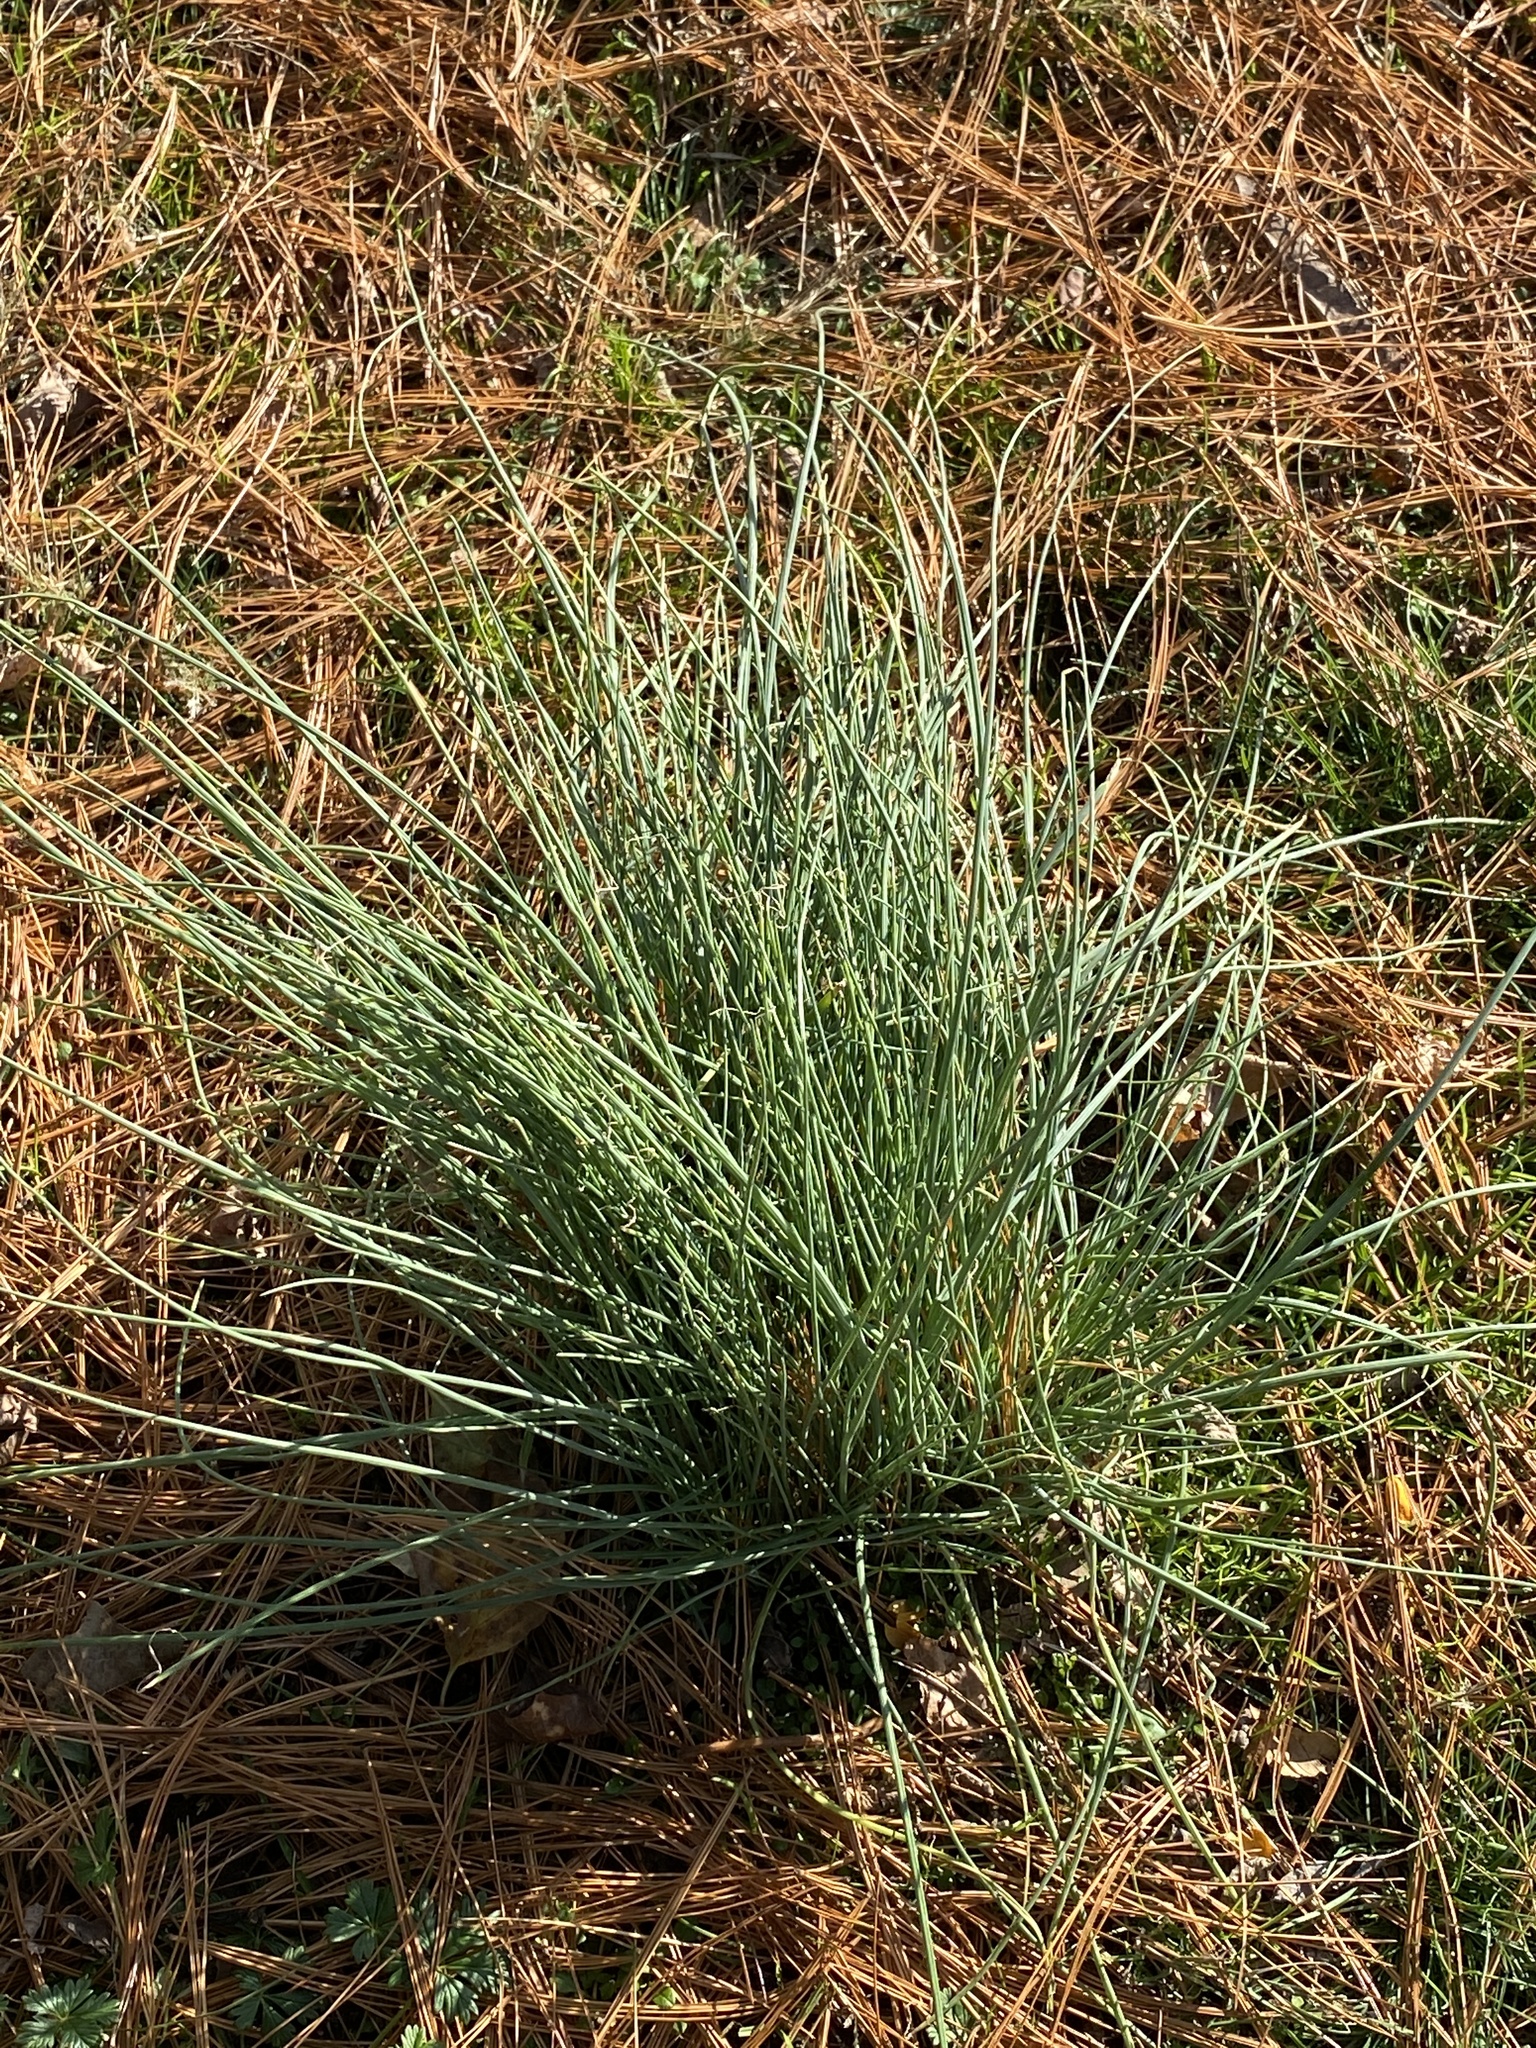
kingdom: Plantae
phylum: Tracheophyta
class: Liliopsida
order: Asparagales
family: Amaryllidaceae
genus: Allium
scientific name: Allium vineale
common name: Crow garlic
